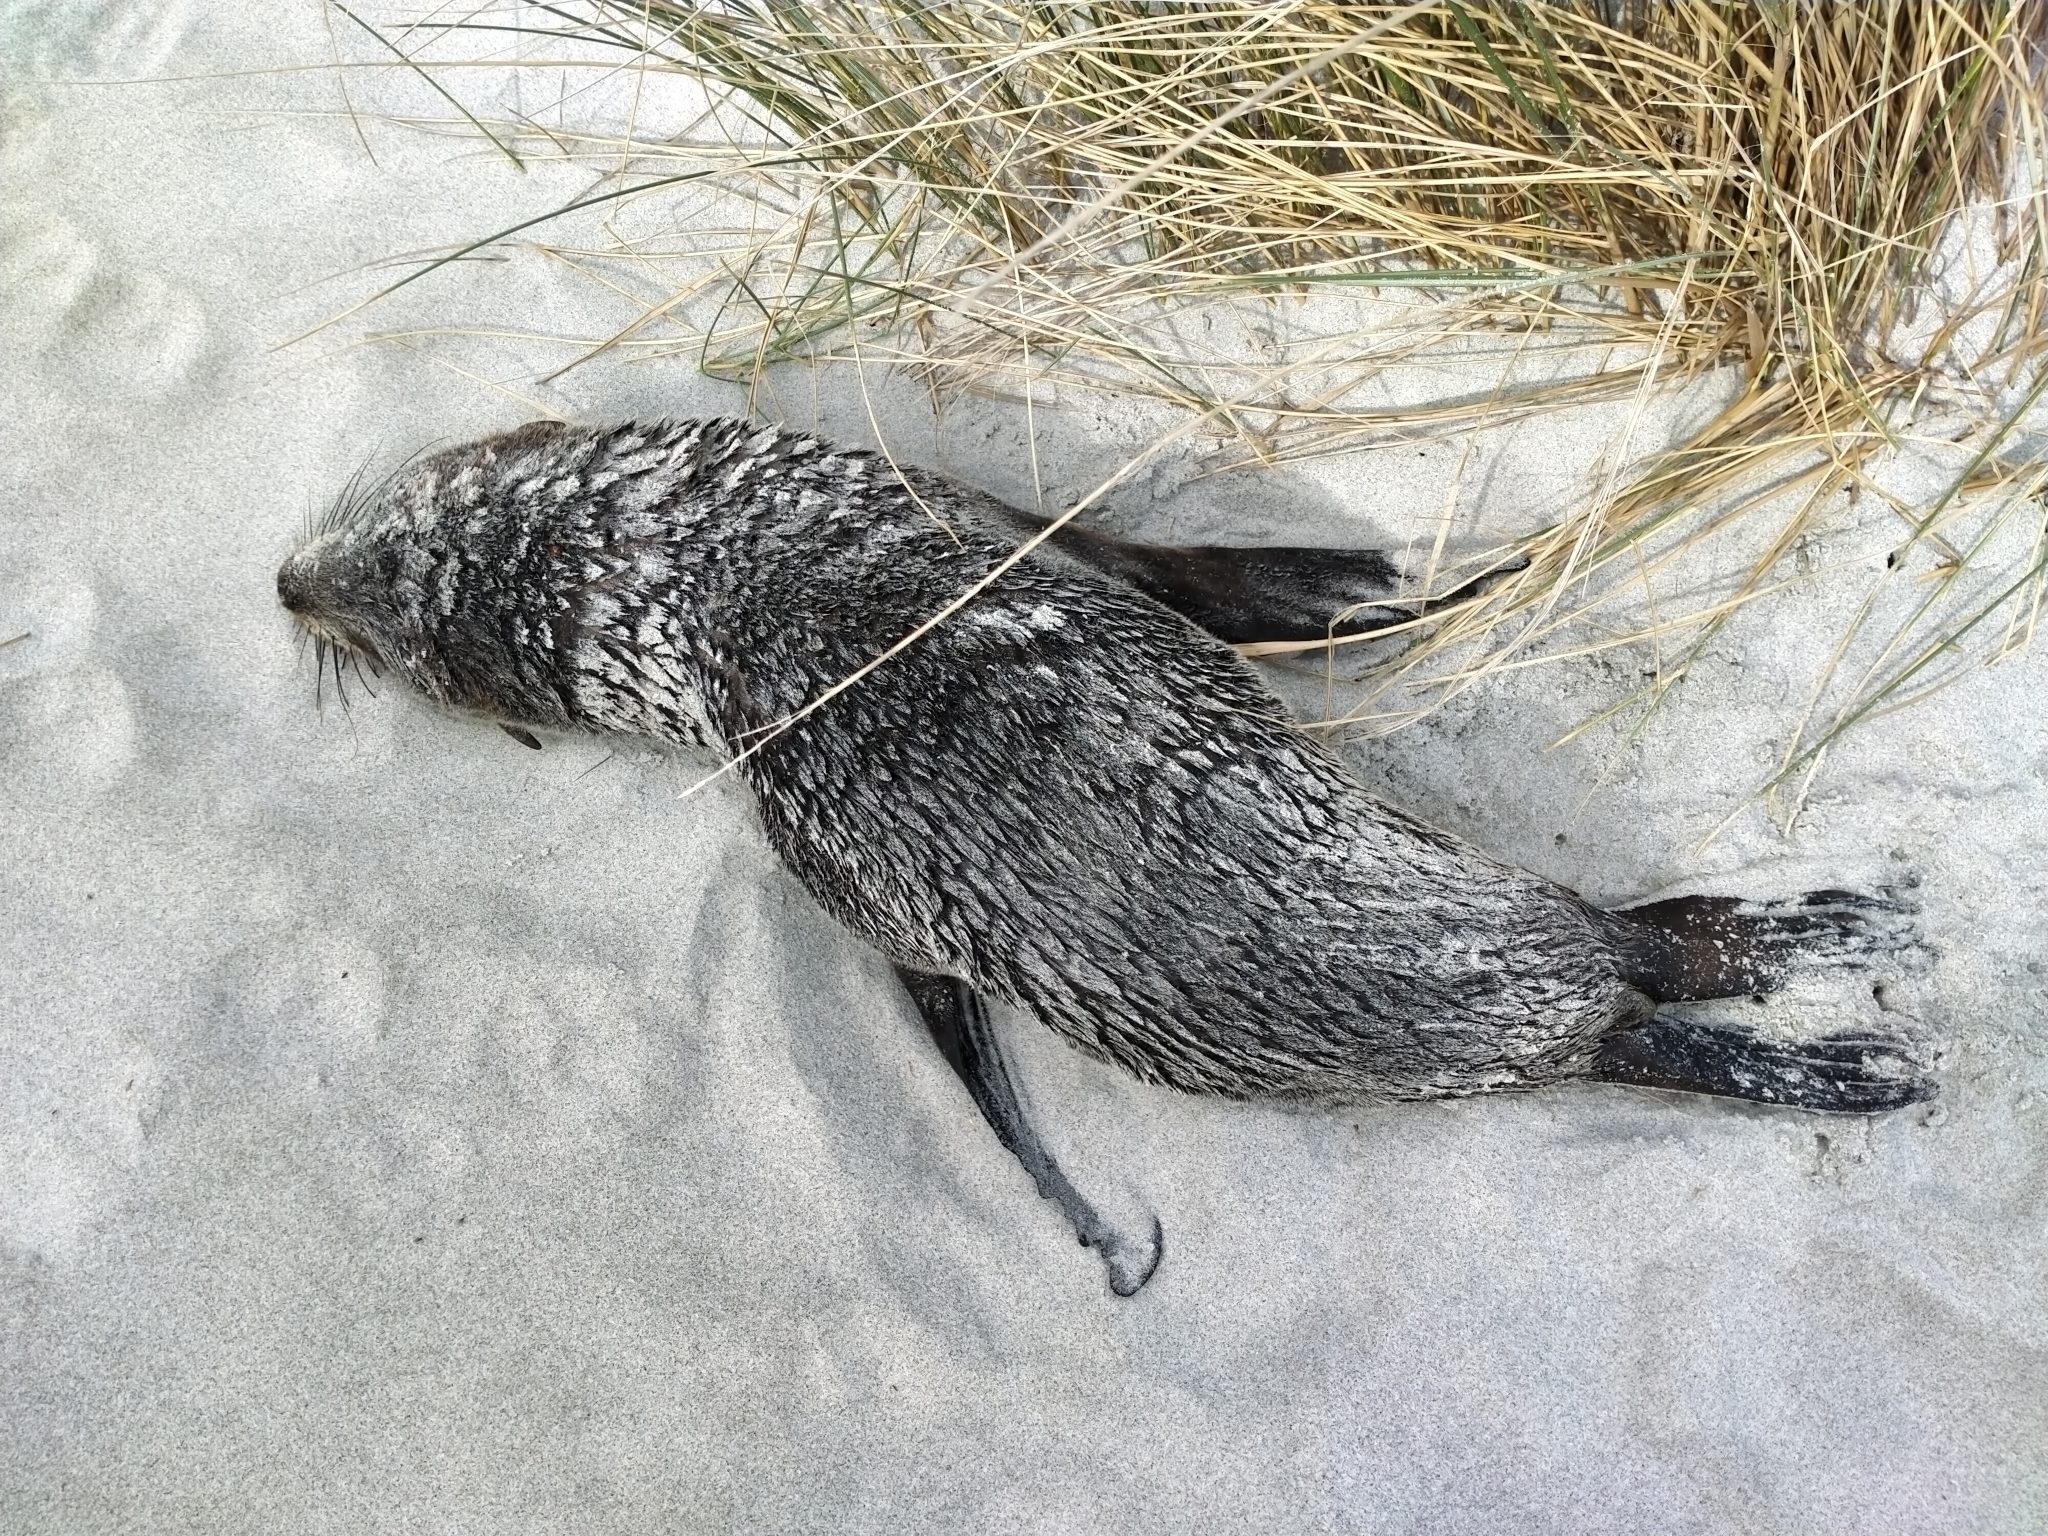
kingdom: Animalia
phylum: Chordata
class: Mammalia
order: Carnivora
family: Otariidae
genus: Arctocephalus
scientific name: Arctocephalus forsteri
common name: New zealand fur seal
